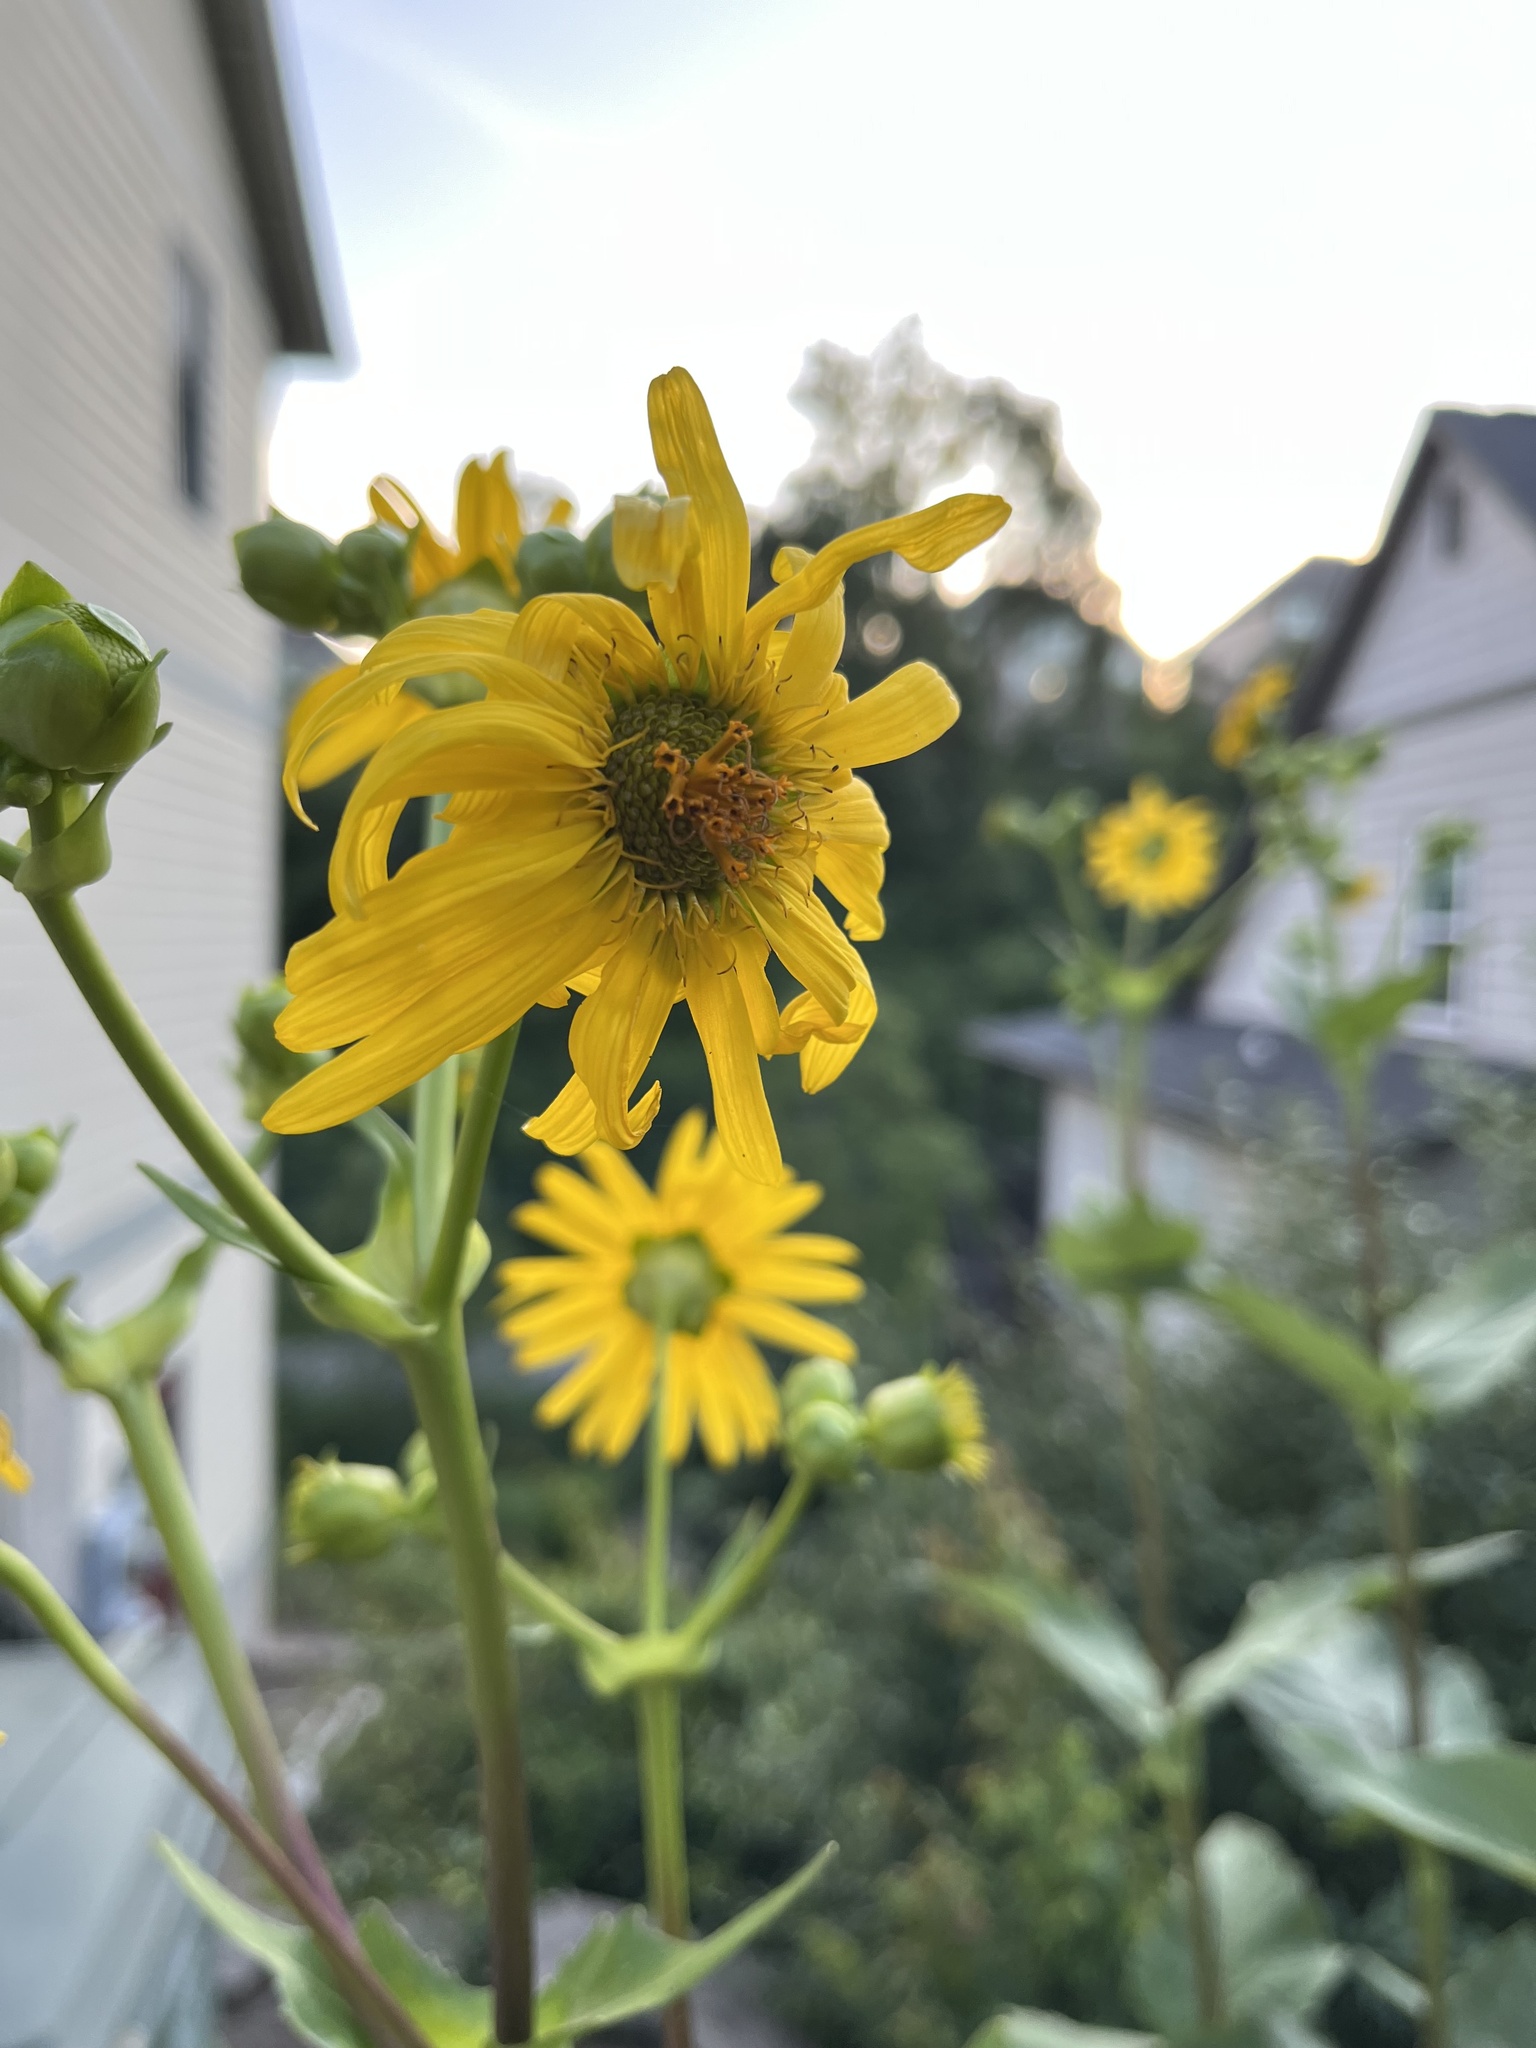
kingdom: Plantae
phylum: Tracheophyta
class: Magnoliopsida
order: Asterales
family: Asteraceae
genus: Silphium
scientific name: Silphium perfoliatum
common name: Cup-plant
